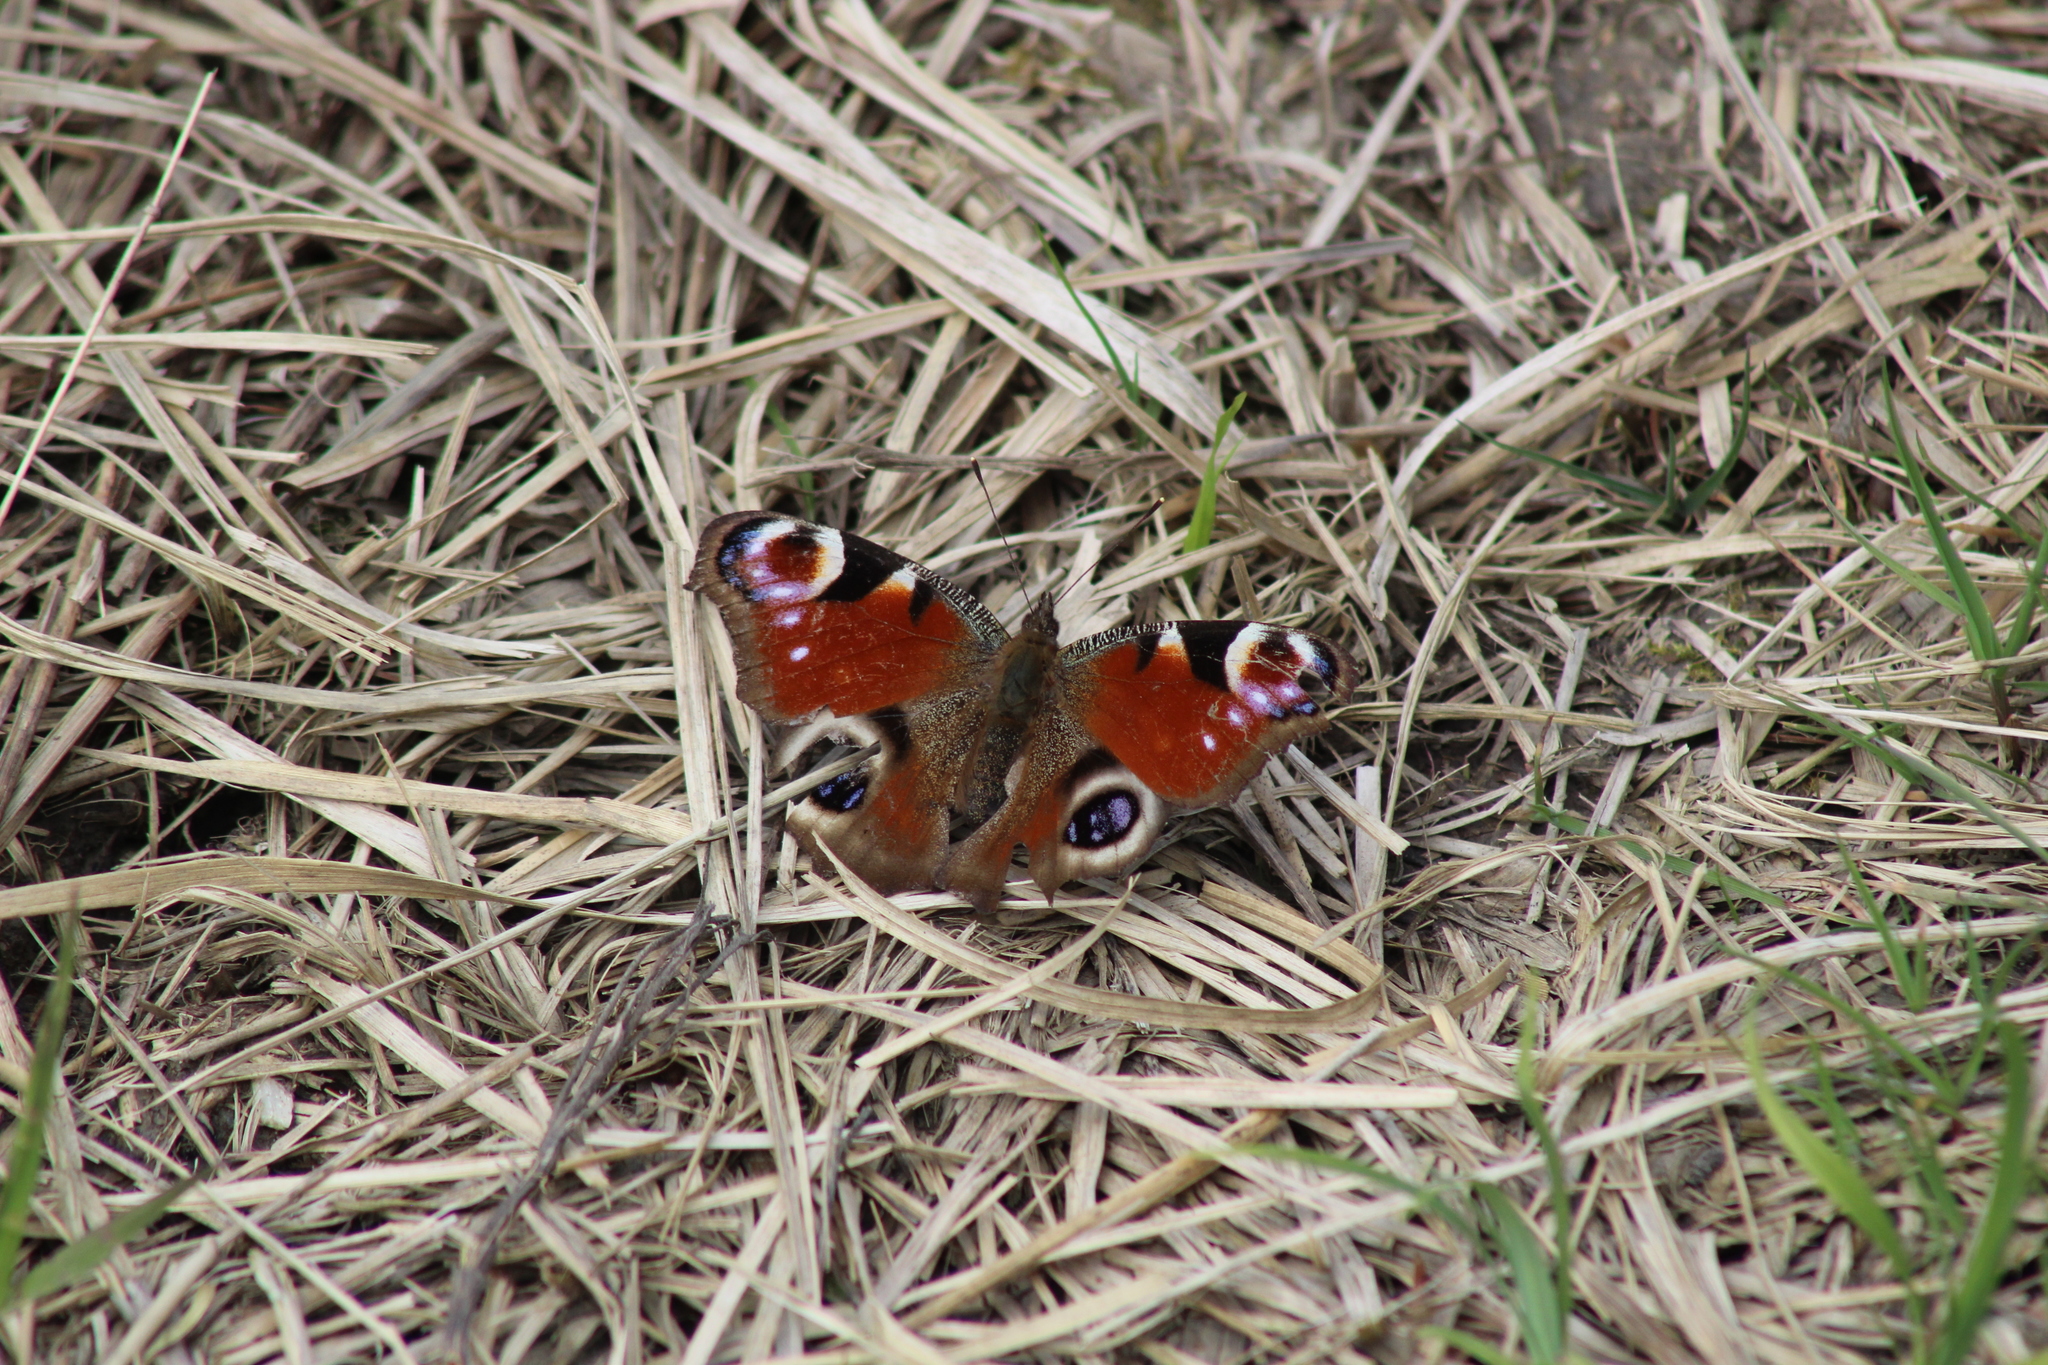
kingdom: Animalia
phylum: Arthropoda
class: Insecta
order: Lepidoptera
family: Nymphalidae
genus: Aglais
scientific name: Aglais io
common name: Peacock
